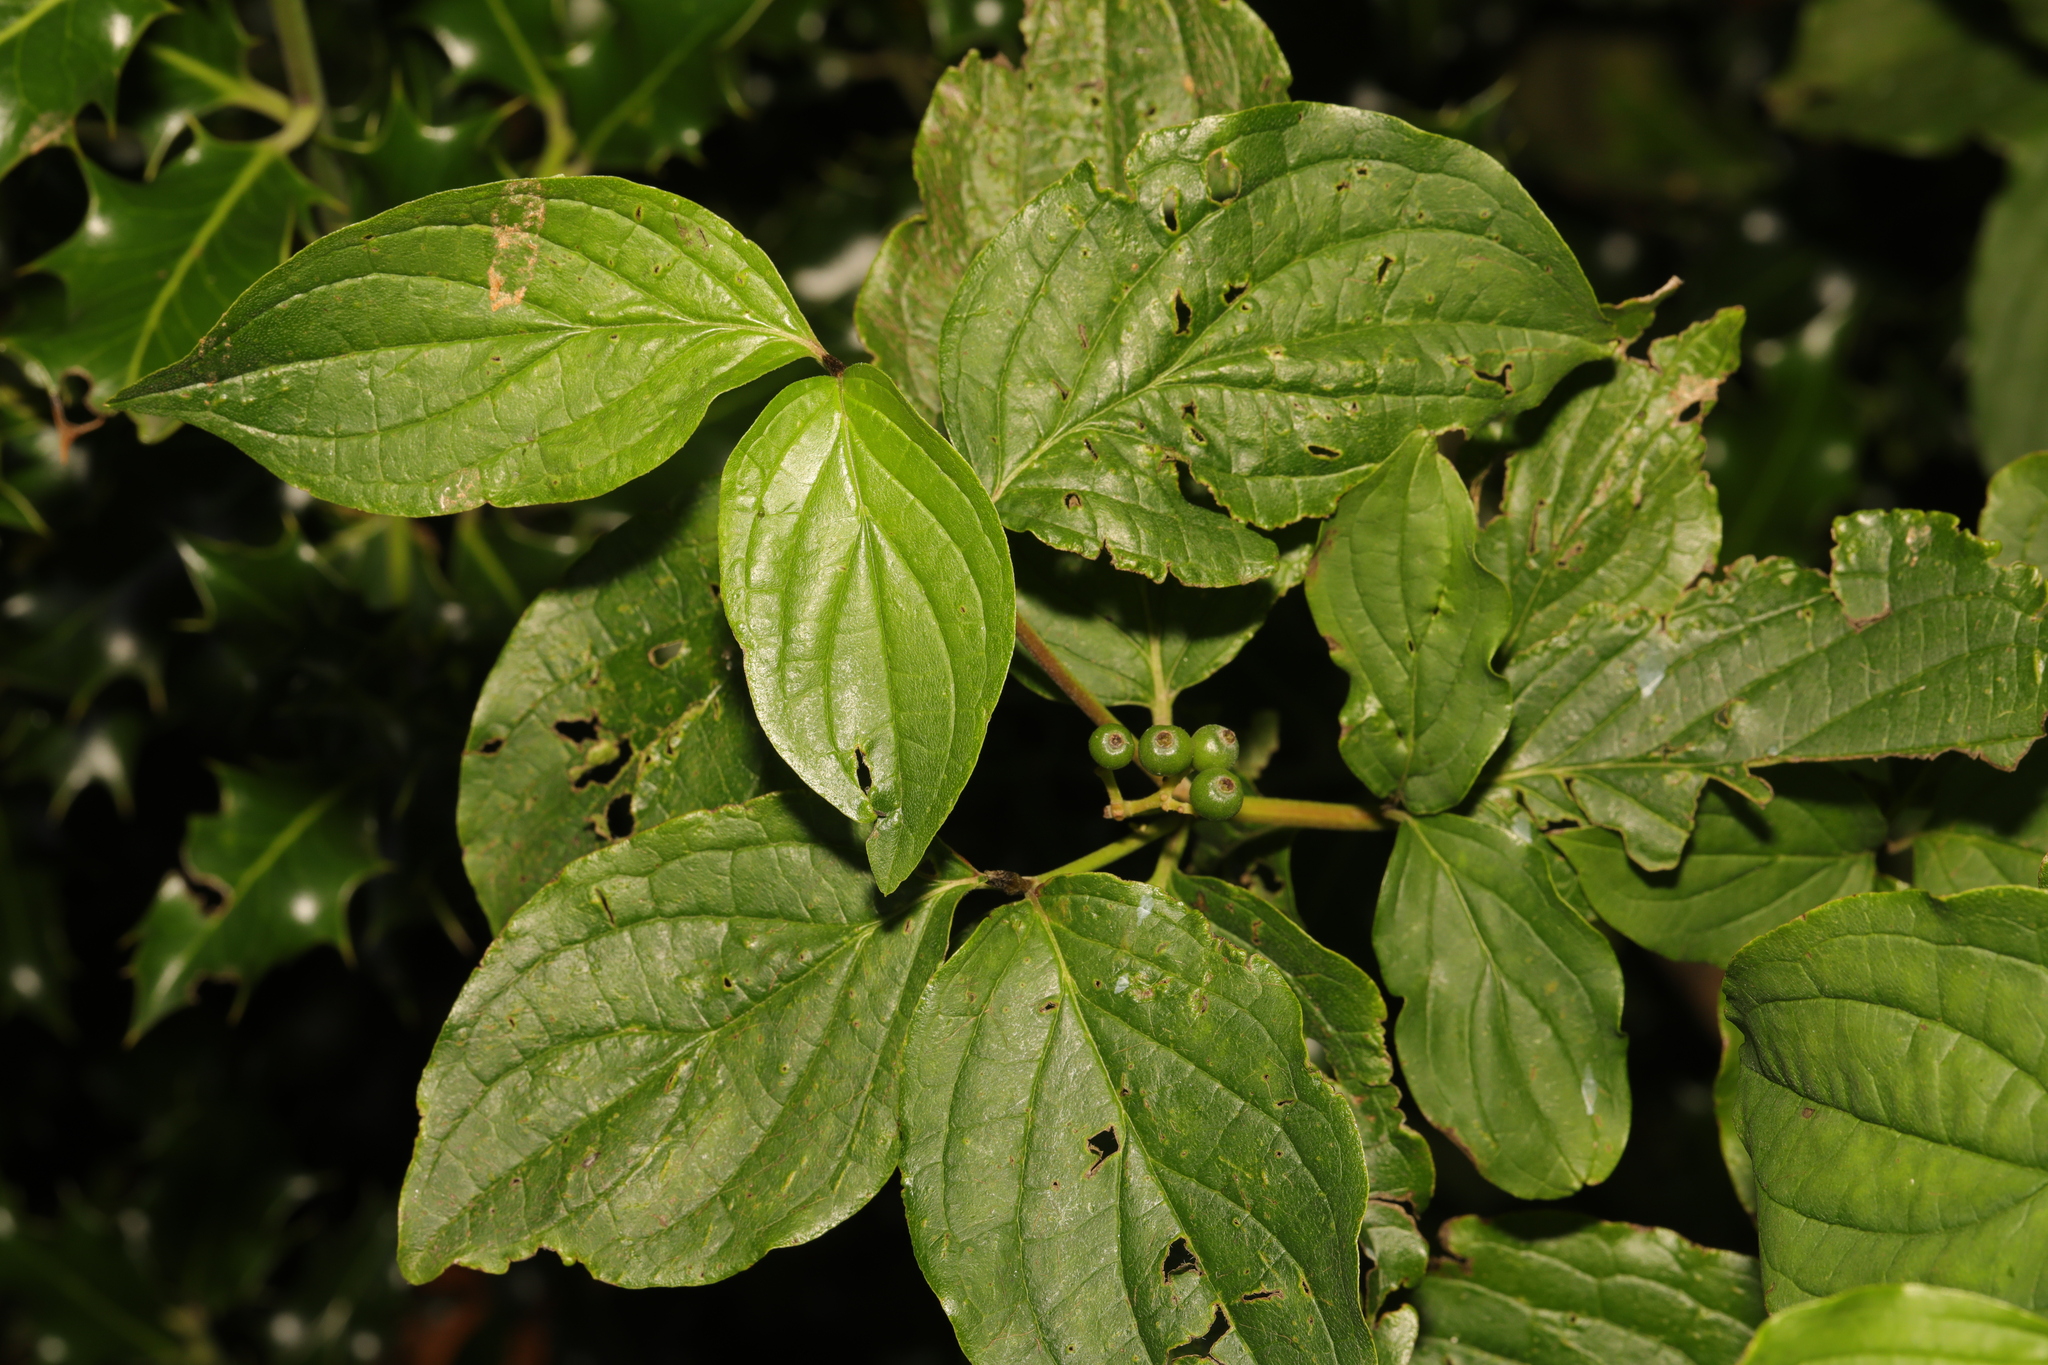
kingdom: Plantae
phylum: Tracheophyta
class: Magnoliopsida
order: Cornales
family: Cornaceae
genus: Cornus
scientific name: Cornus sanguinea
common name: Dogwood
